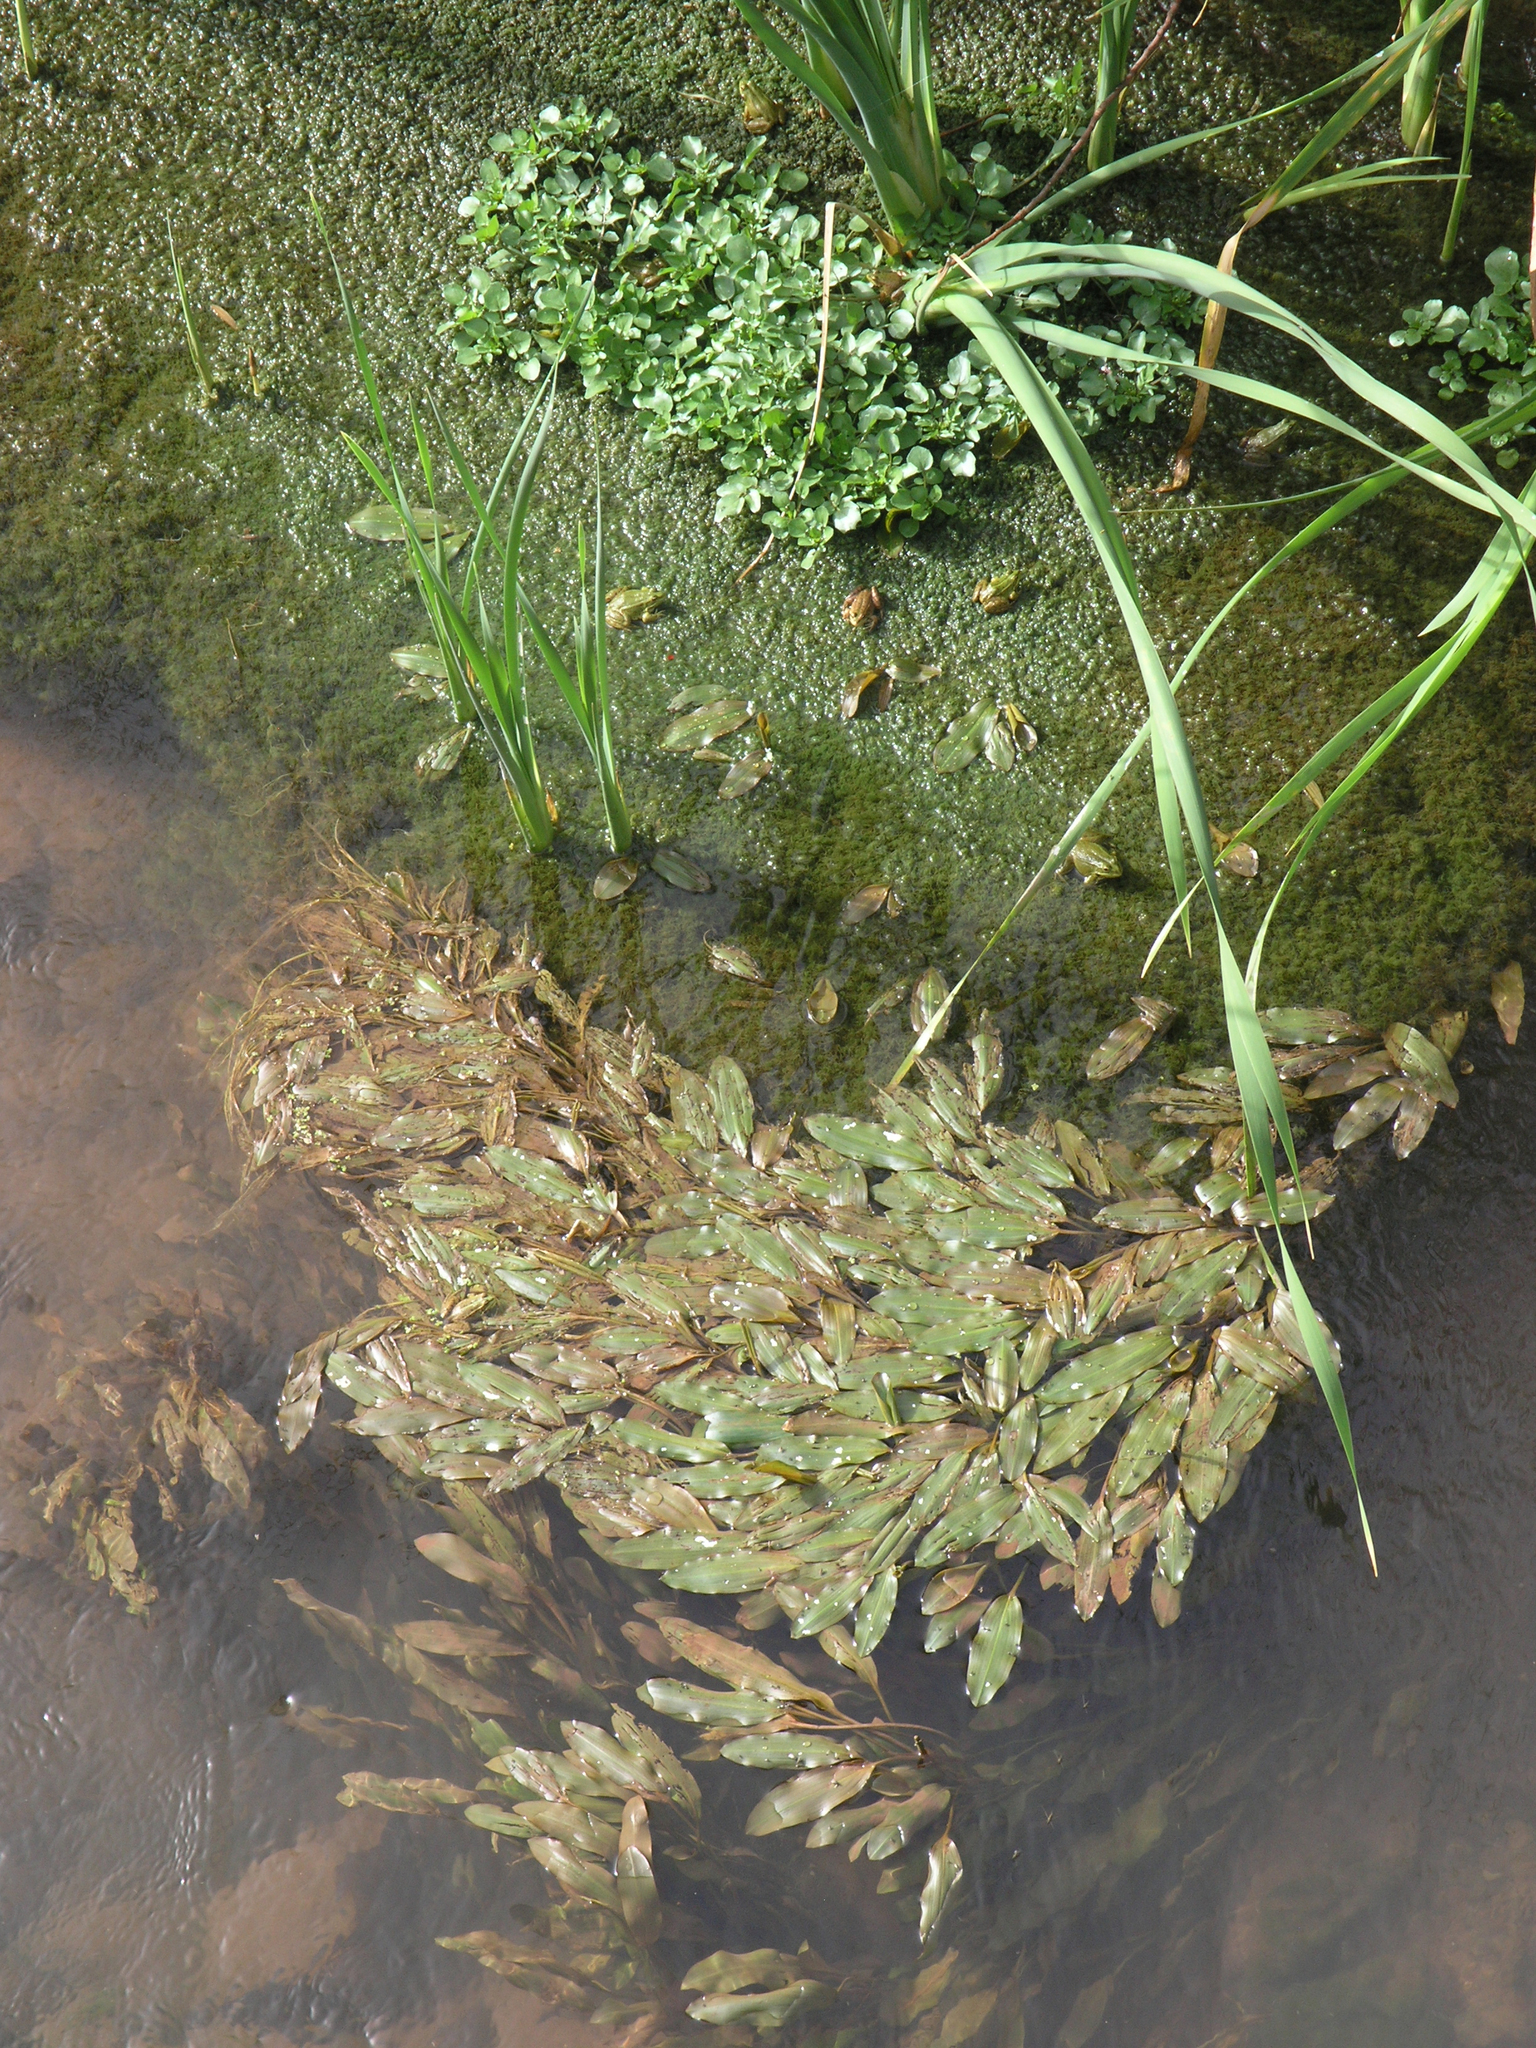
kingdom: Plantae
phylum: Tracheophyta
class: Liliopsida
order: Alismatales
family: Potamogetonaceae
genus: Potamogeton
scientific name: Potamogeton nodosus
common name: Loddon pondweed
